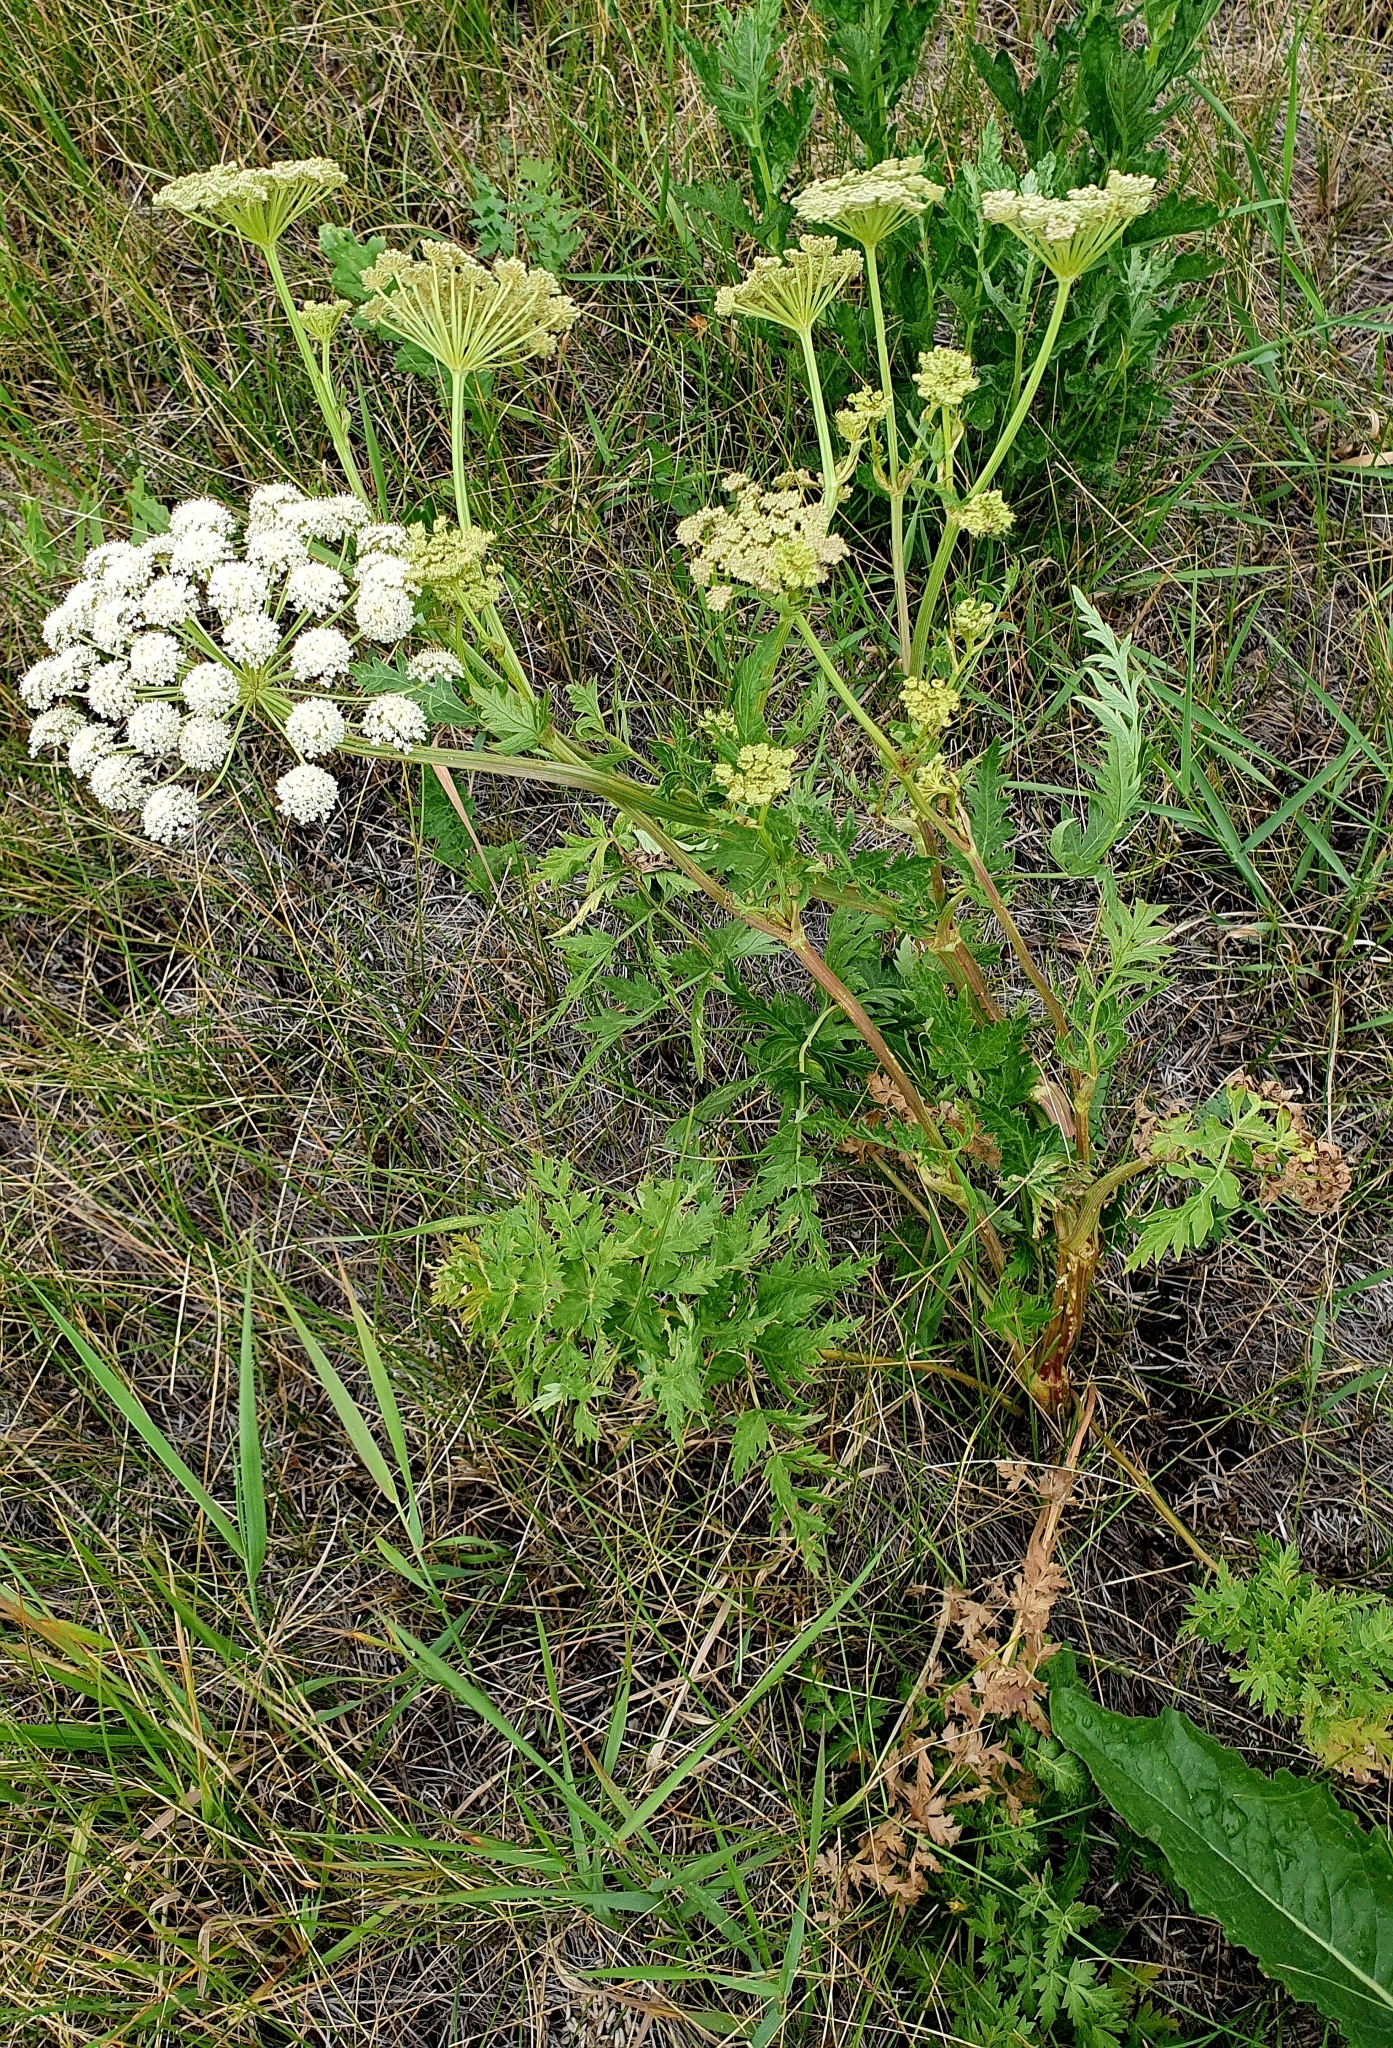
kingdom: Plantae
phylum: Tracheophyta
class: Magnoliopsida
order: Apiales
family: Apiaceae
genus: Seseli
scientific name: Seseli libanotis
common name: Mooncarrot
